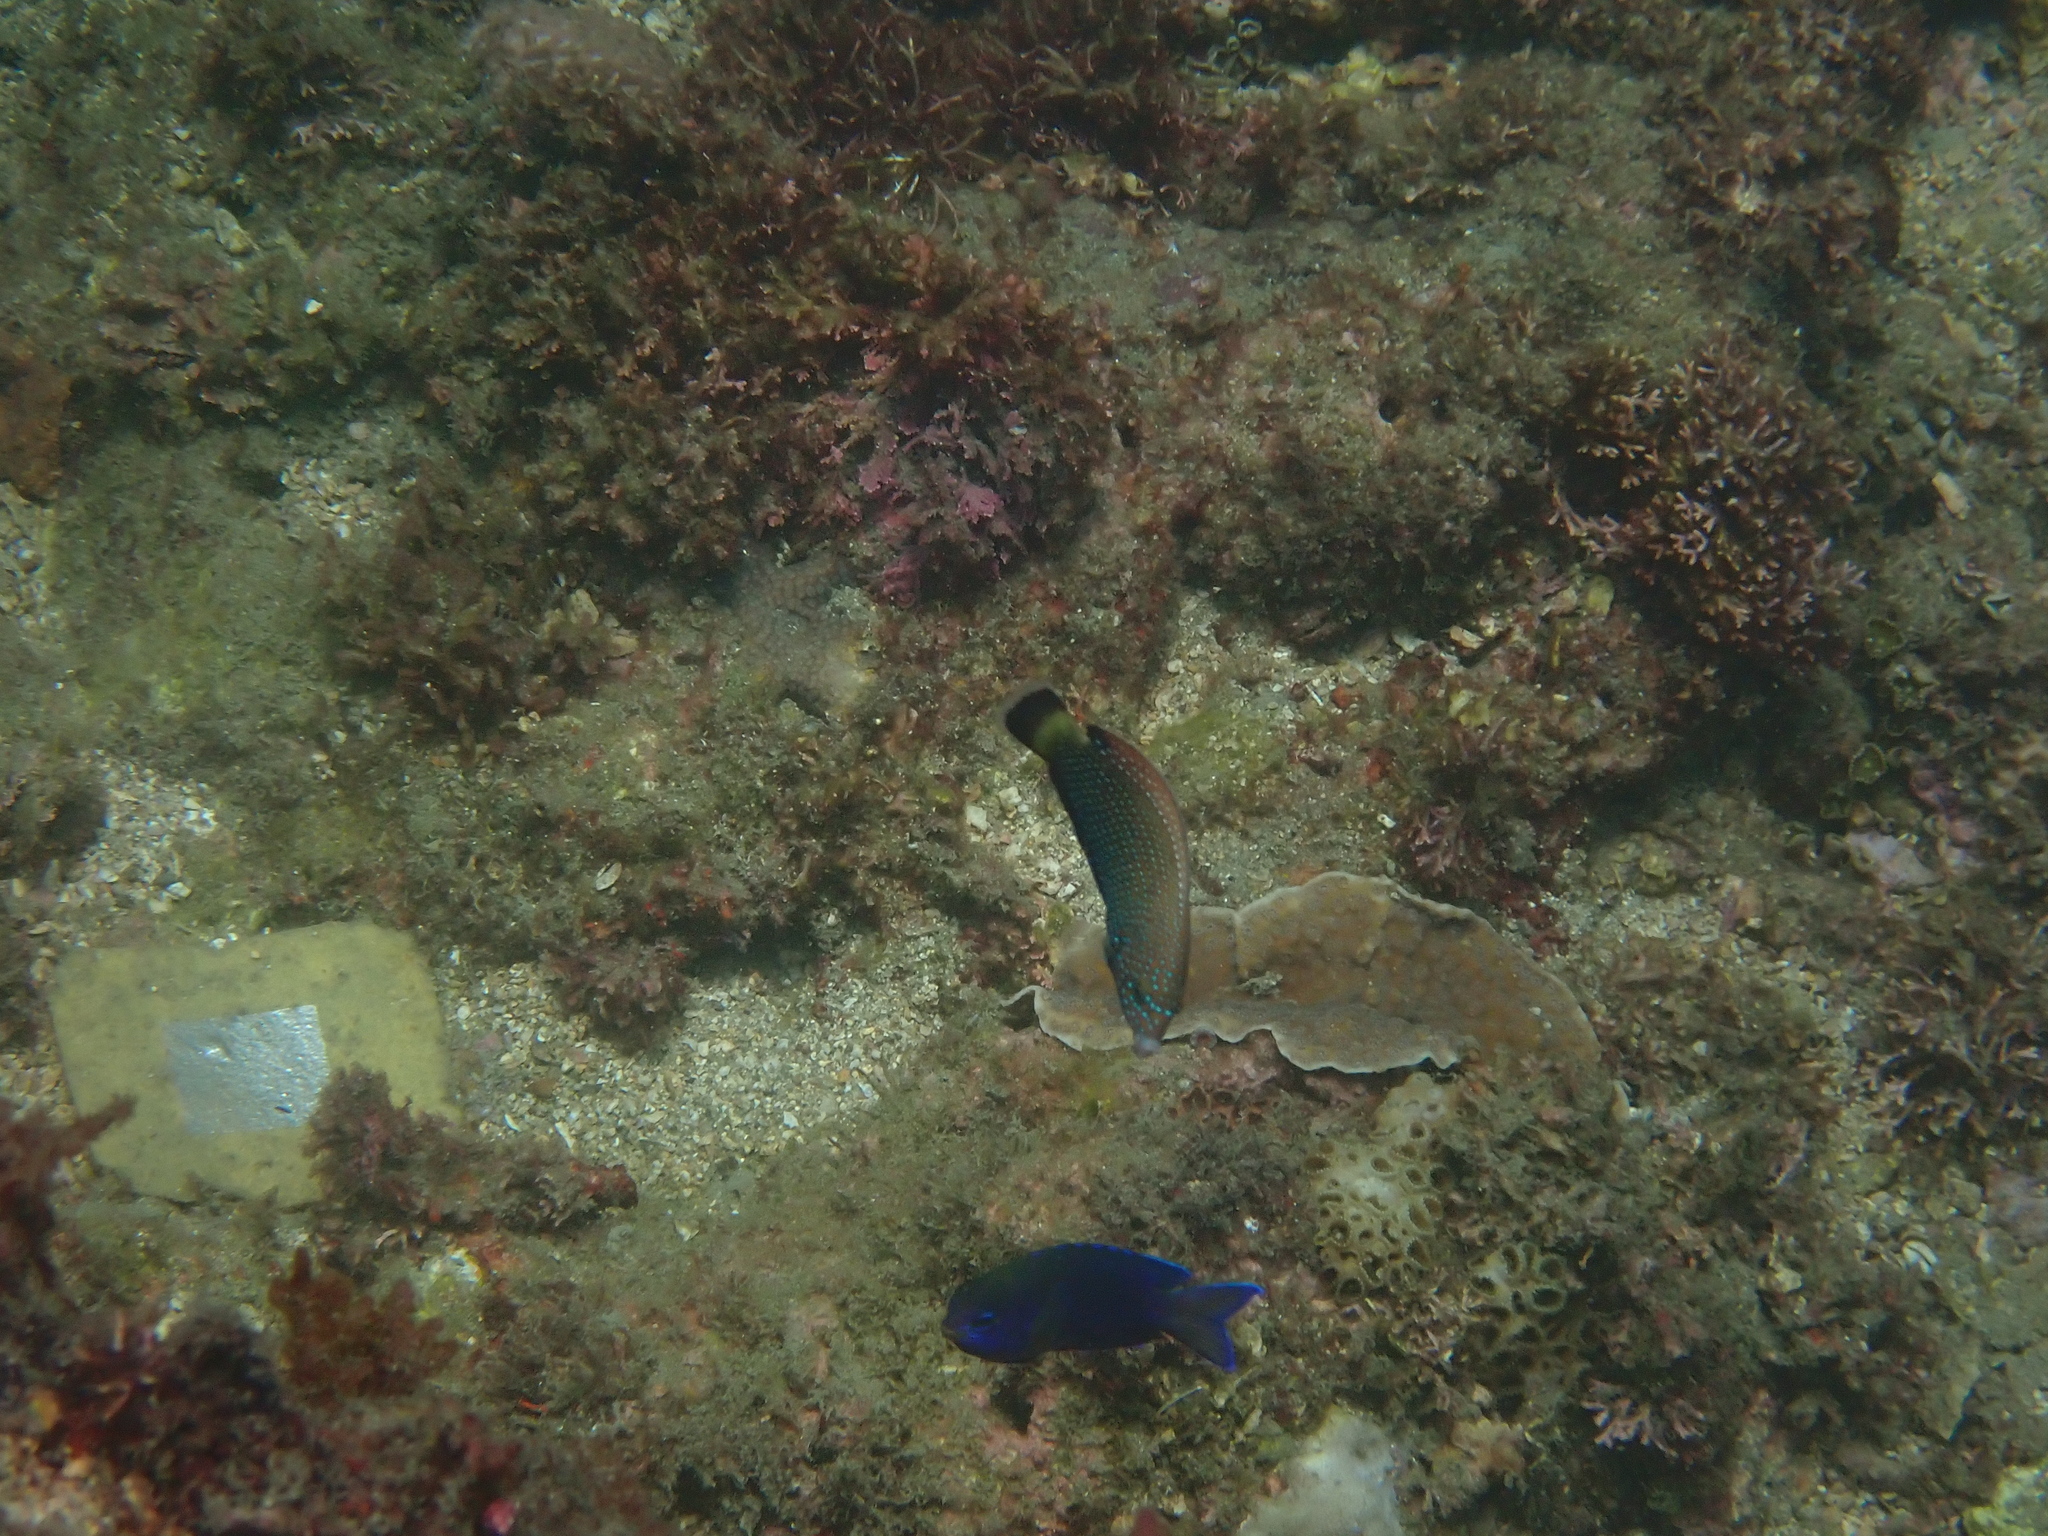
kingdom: Animalia
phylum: Chordata
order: Perciformes
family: Labridae
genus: Anampses
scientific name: Anampses melanurus
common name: White-spotted wrasse
